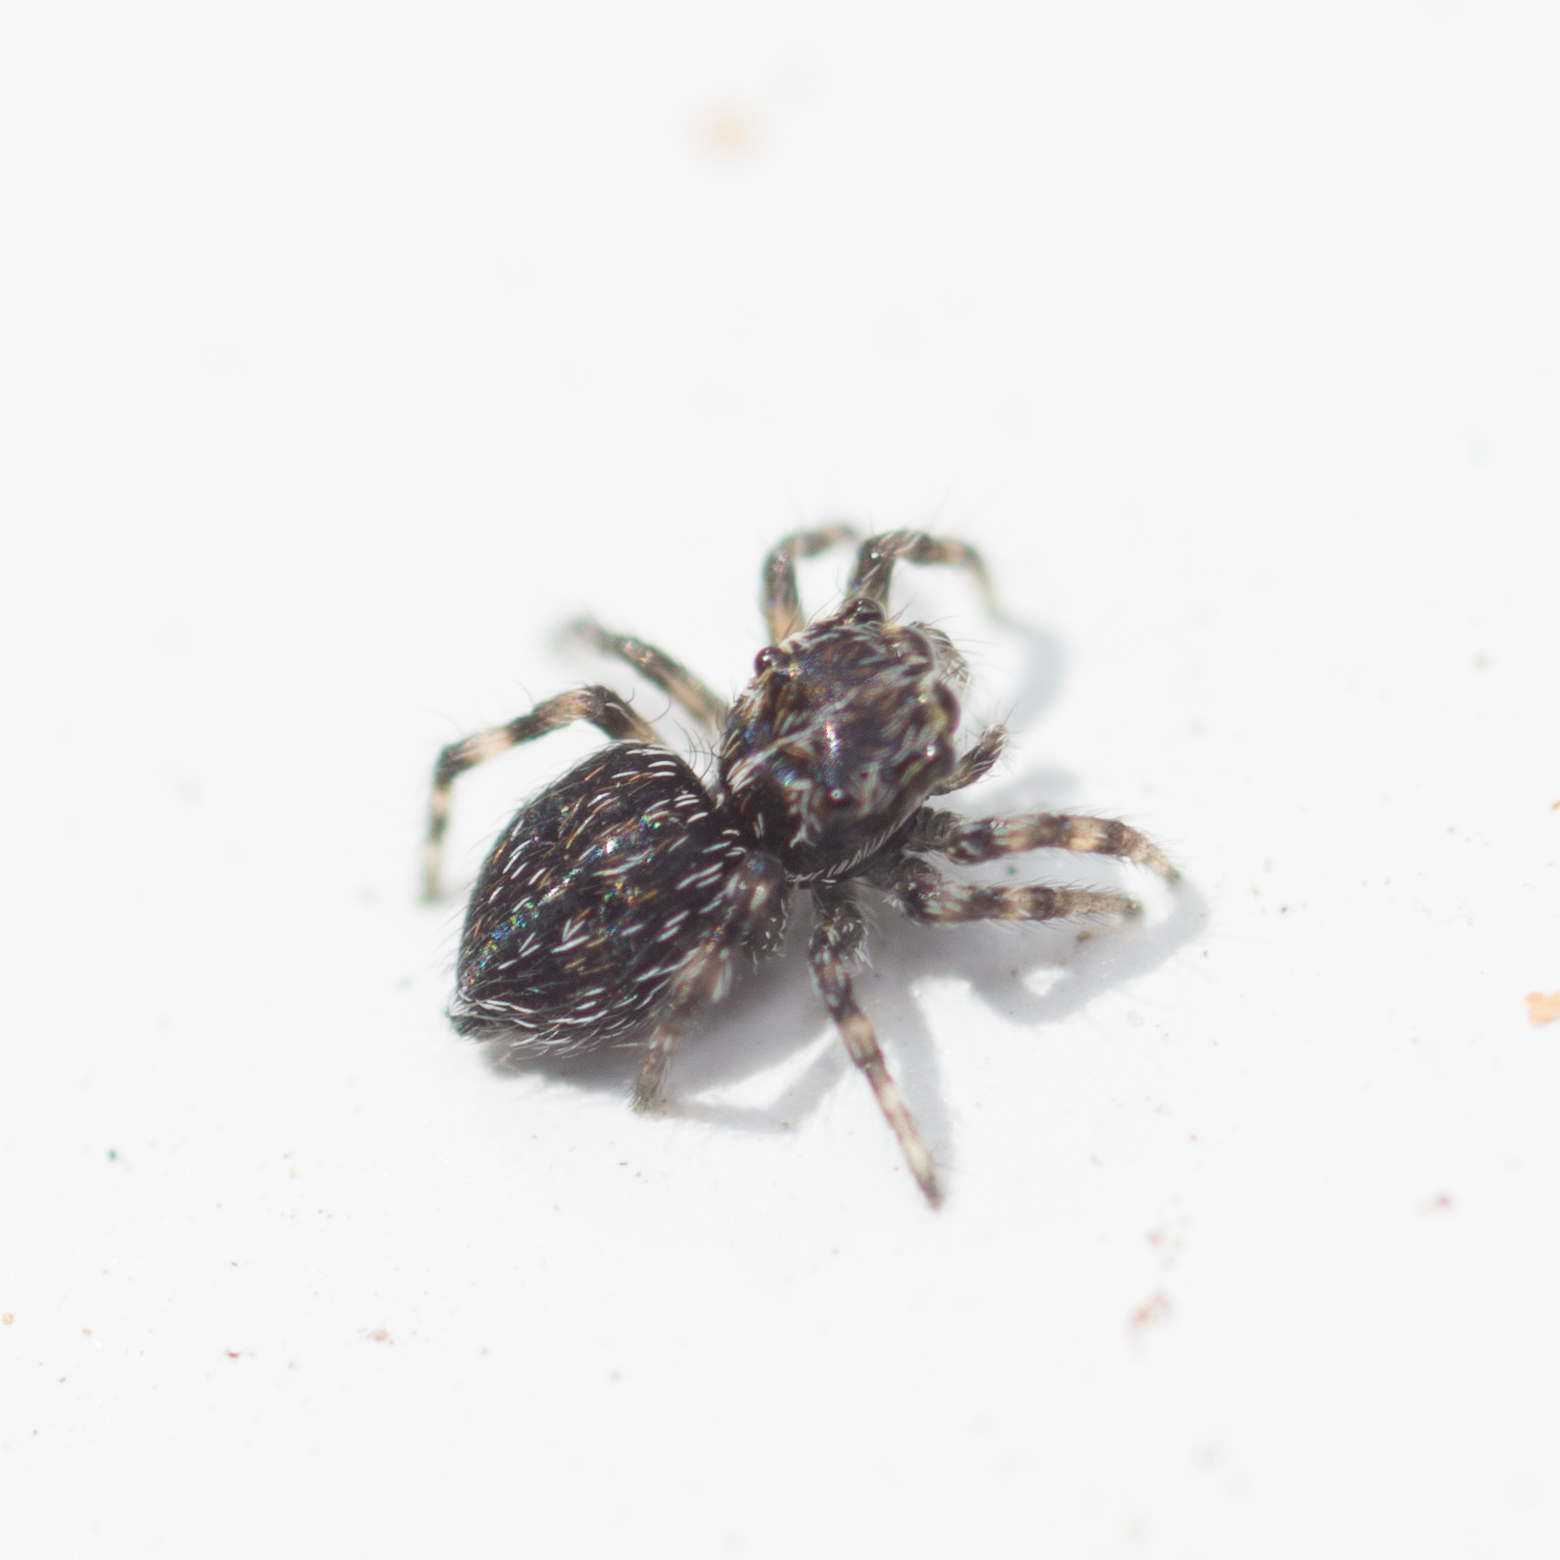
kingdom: Animalia
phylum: Arthropoda
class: Arachnida
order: Araneae
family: Salticidae
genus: Attulus
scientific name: Attulus
